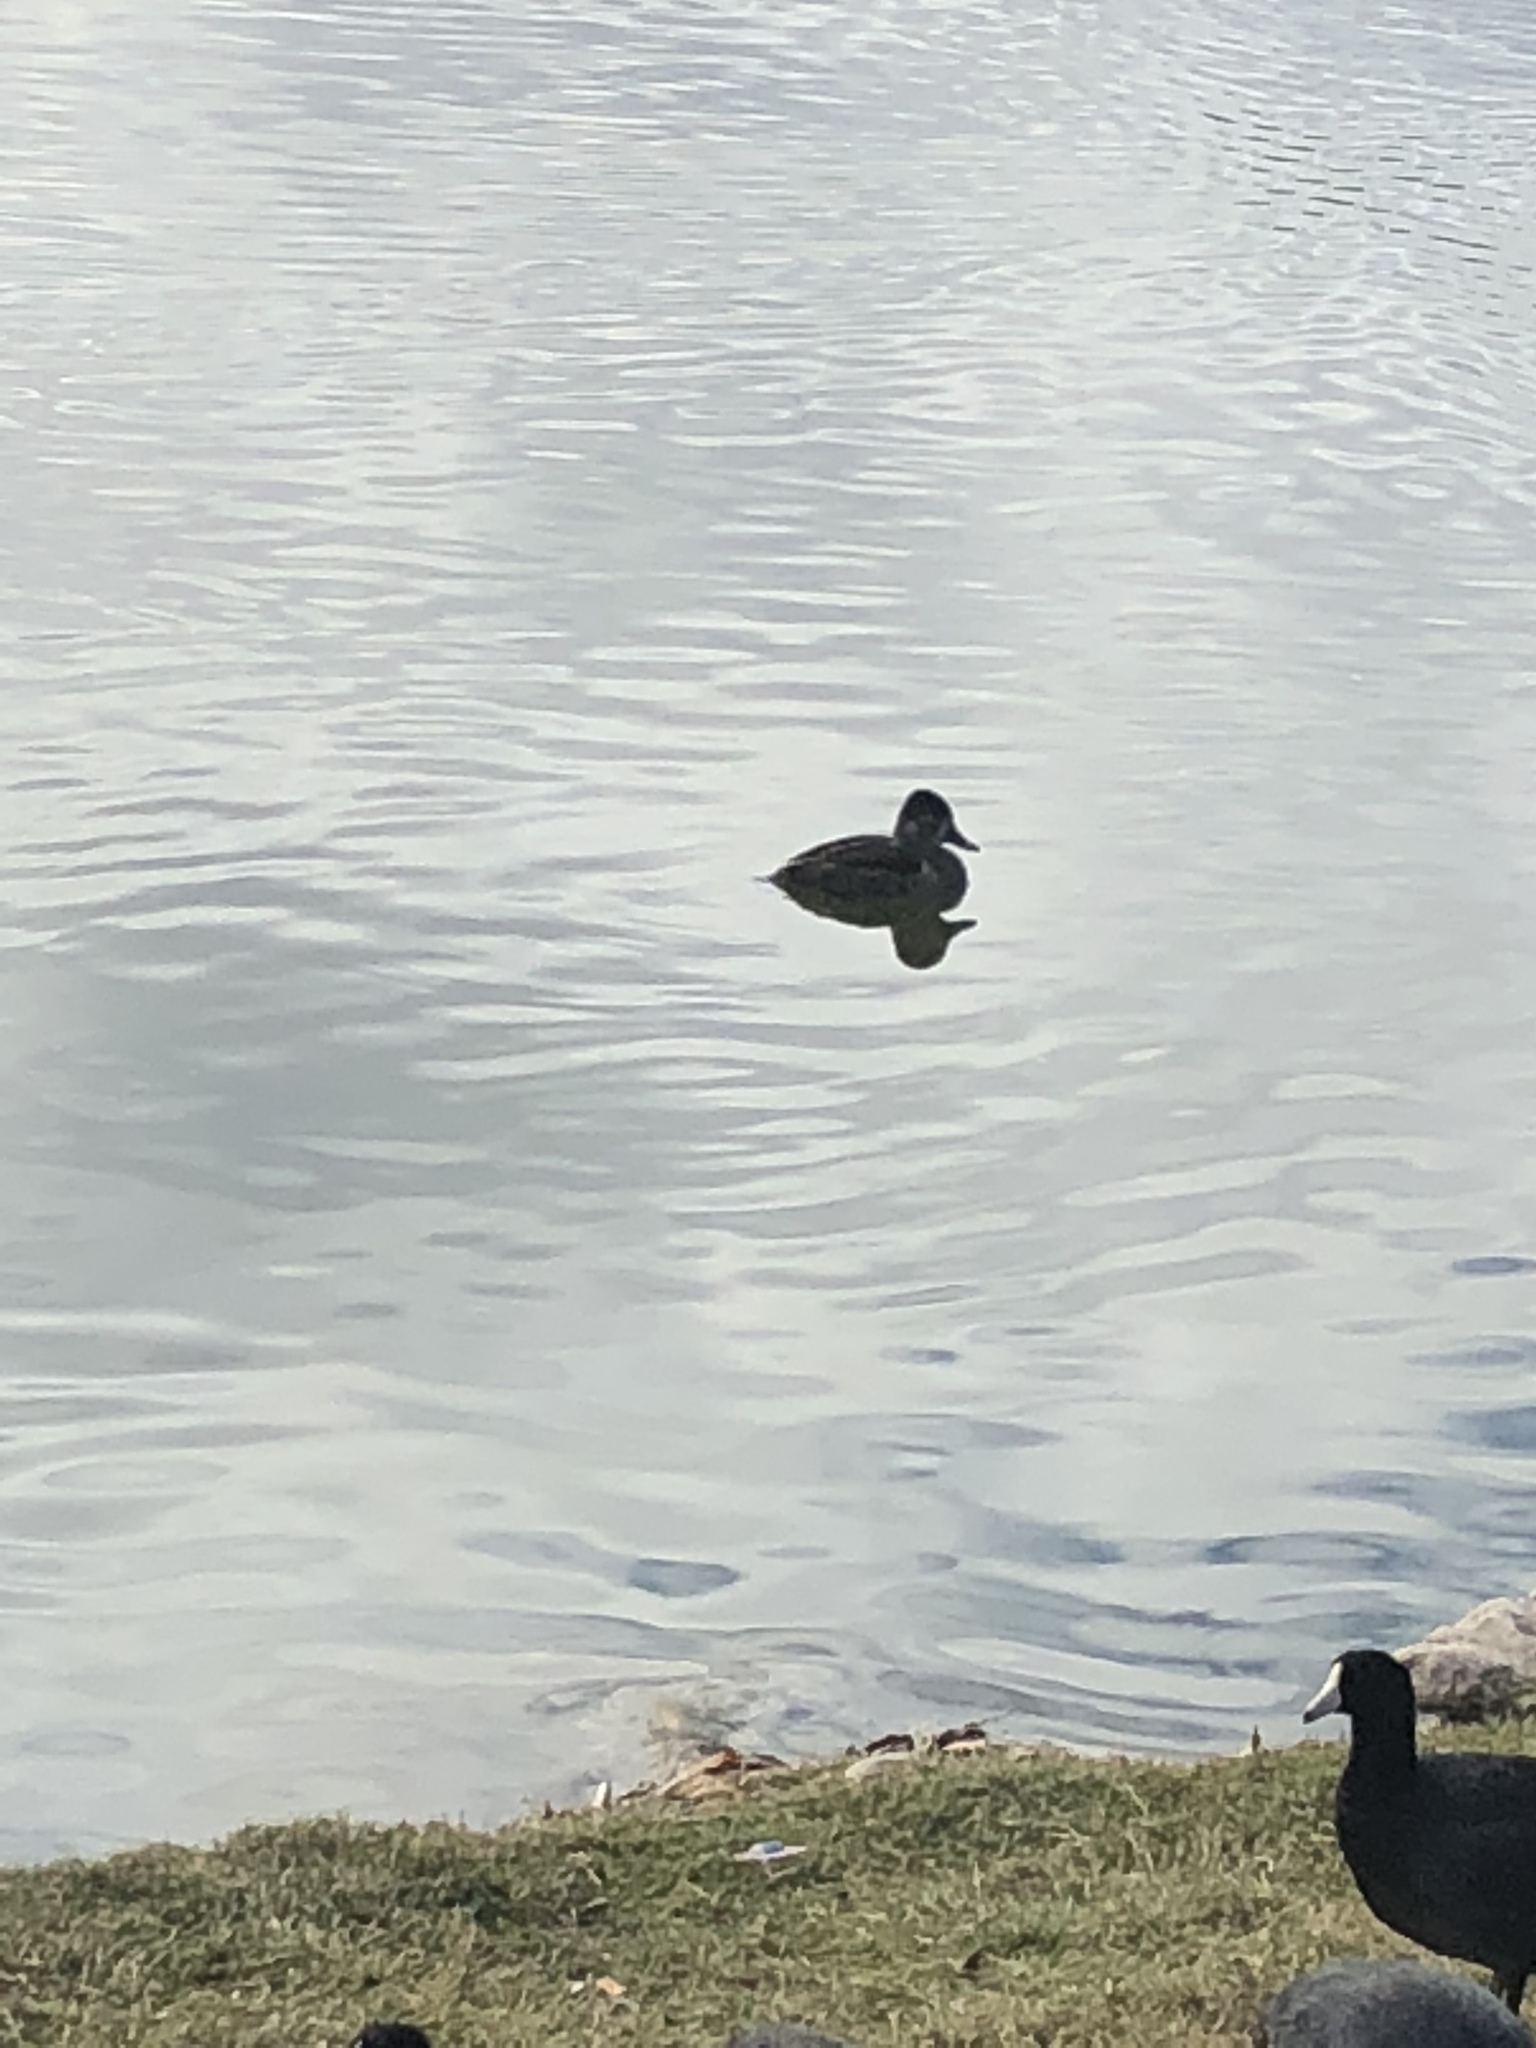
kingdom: Animalia
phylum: Chordata
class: Aves
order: Anseriformes
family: Anatidae
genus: Aythya
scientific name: Aythya collaris
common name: Ring-necked duck
